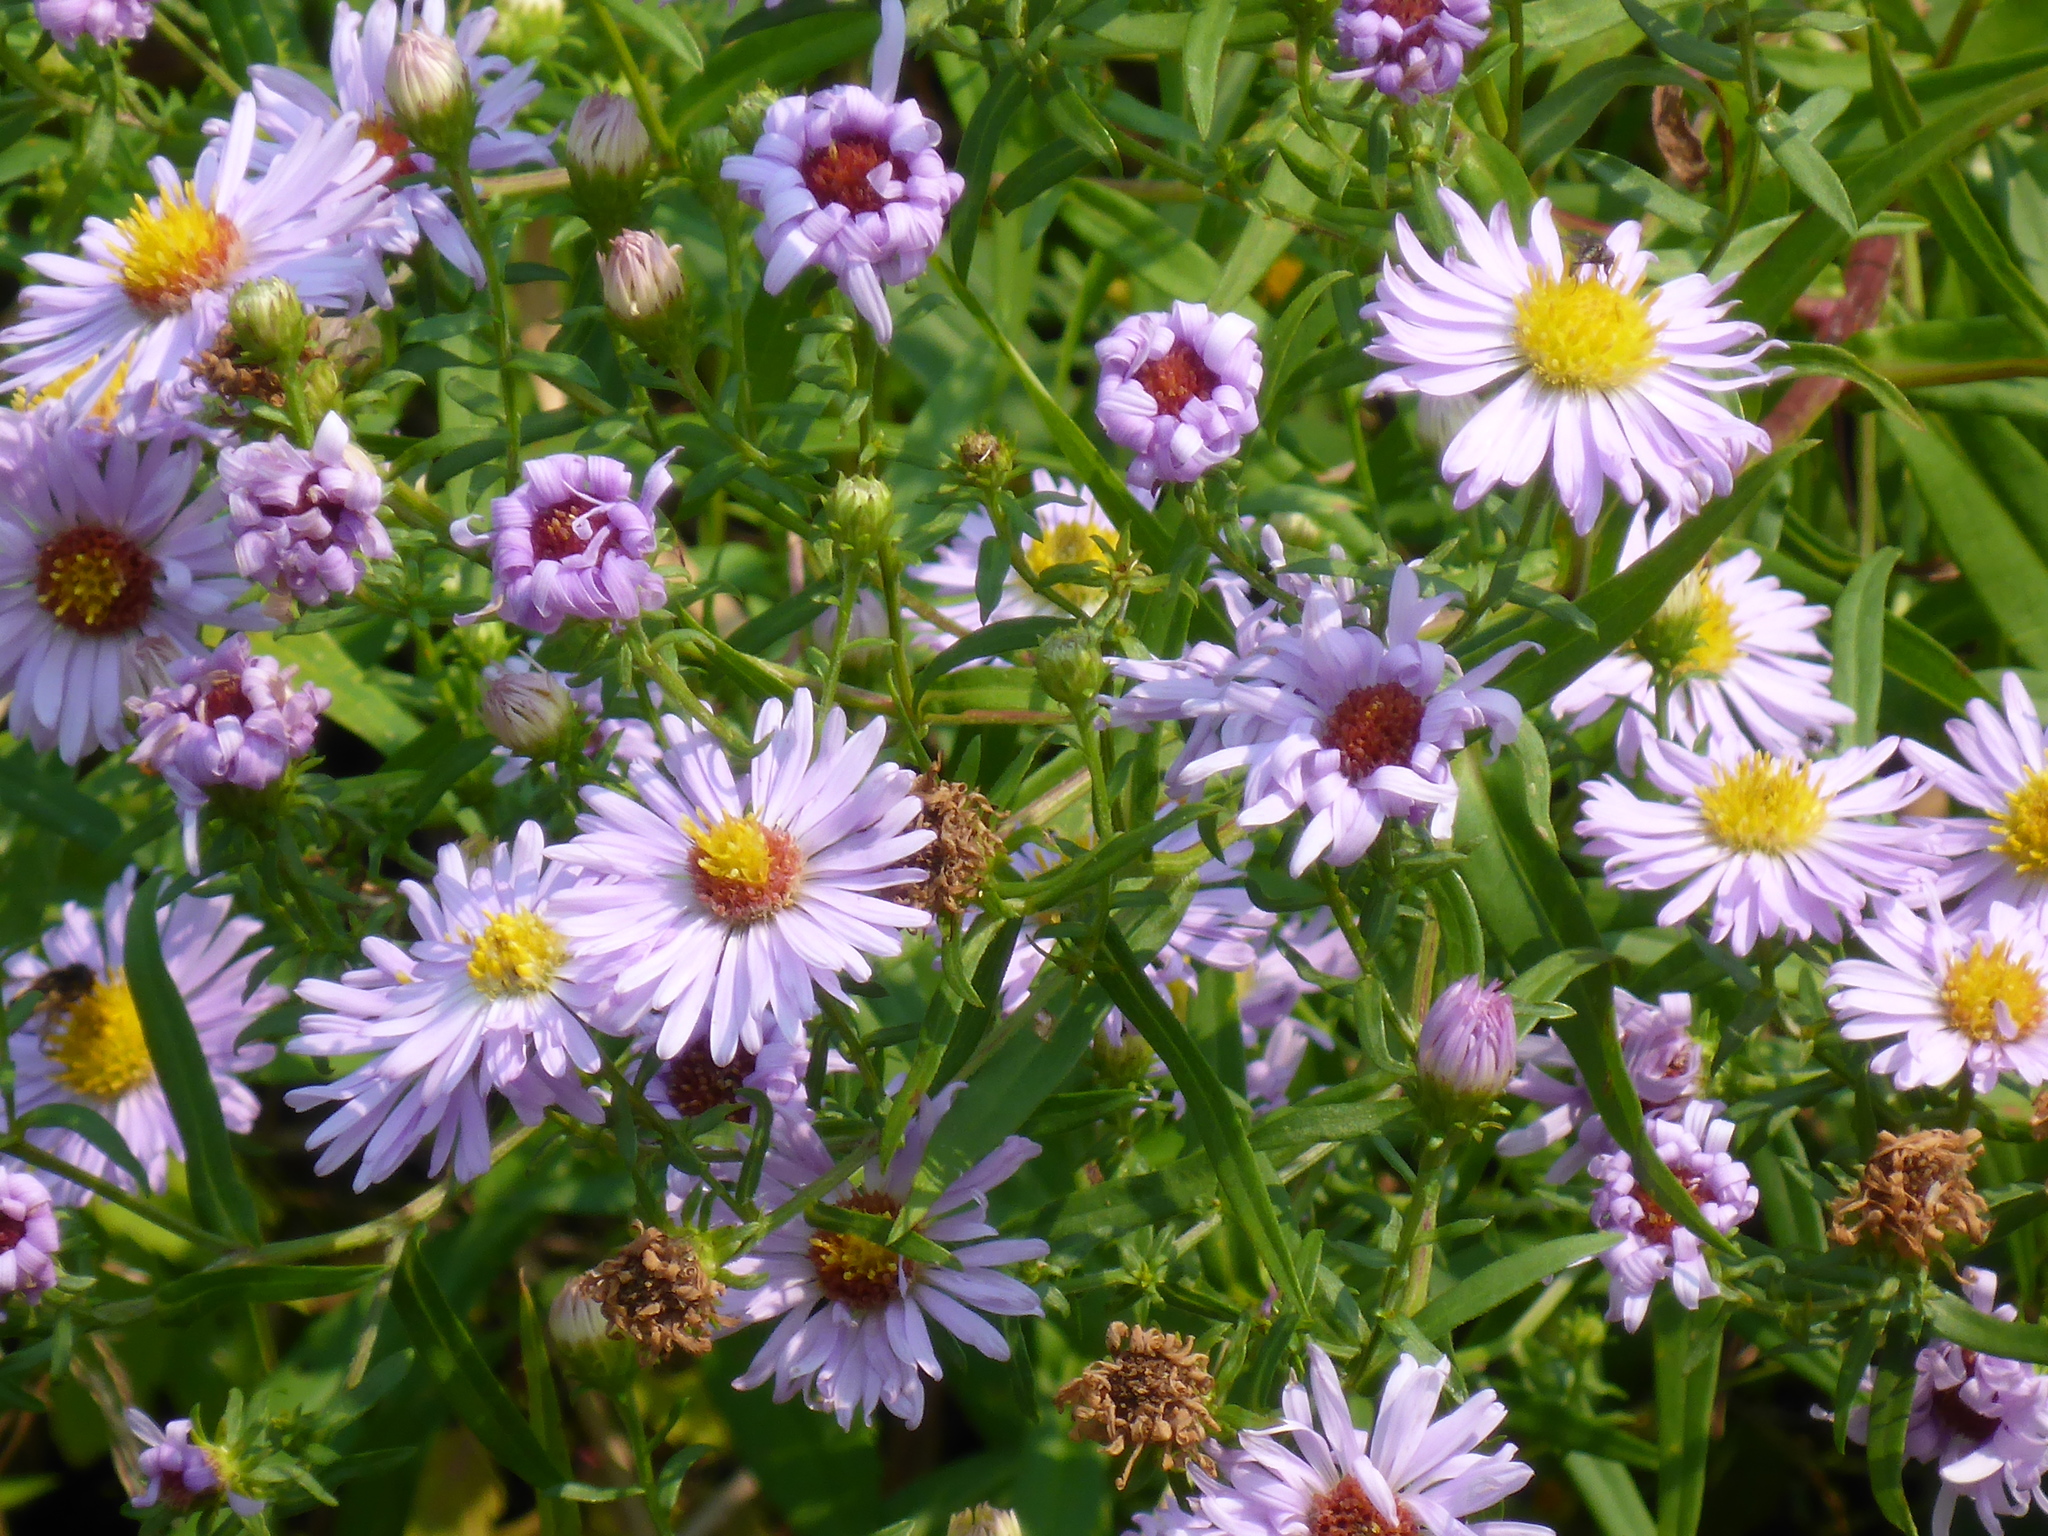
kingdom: Plantae
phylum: Tracheophyta
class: Magnoliopsida
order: Asterales
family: Asteraceae
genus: Symphyotrichum
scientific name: Symphyotrichum novi-belgii
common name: Michaelmas daisy
